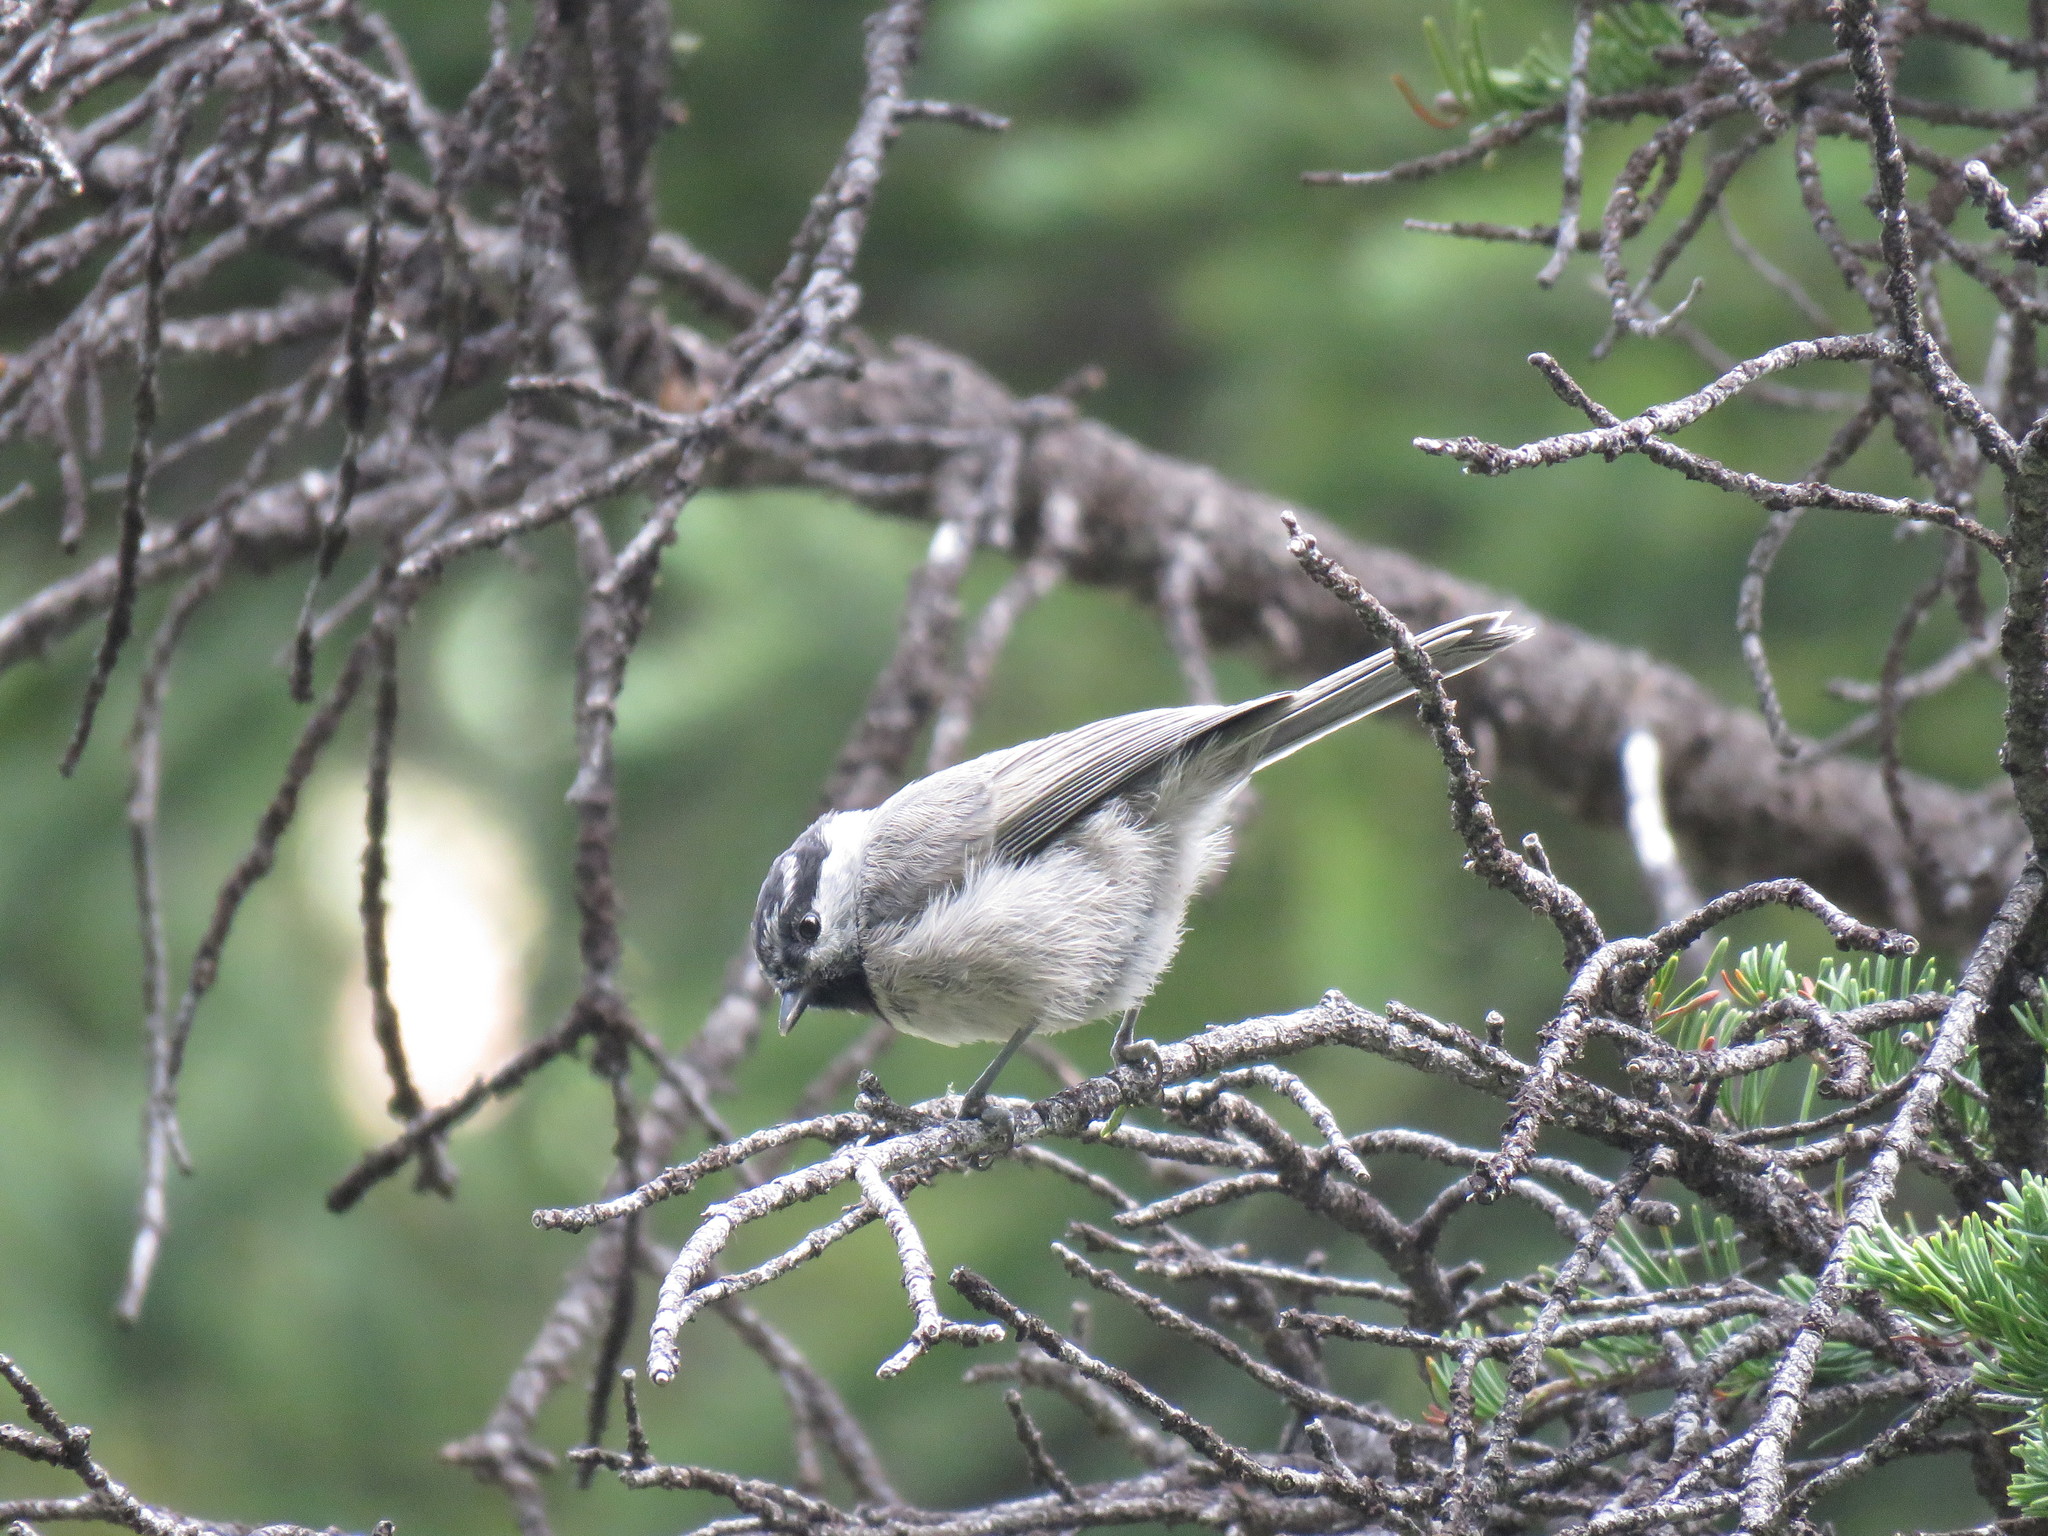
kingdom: Animalia
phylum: Chordata
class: Aves
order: Passeriformes
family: Paridae
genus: Poecile
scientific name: Poecile gambeli
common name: Mountain chickadee
